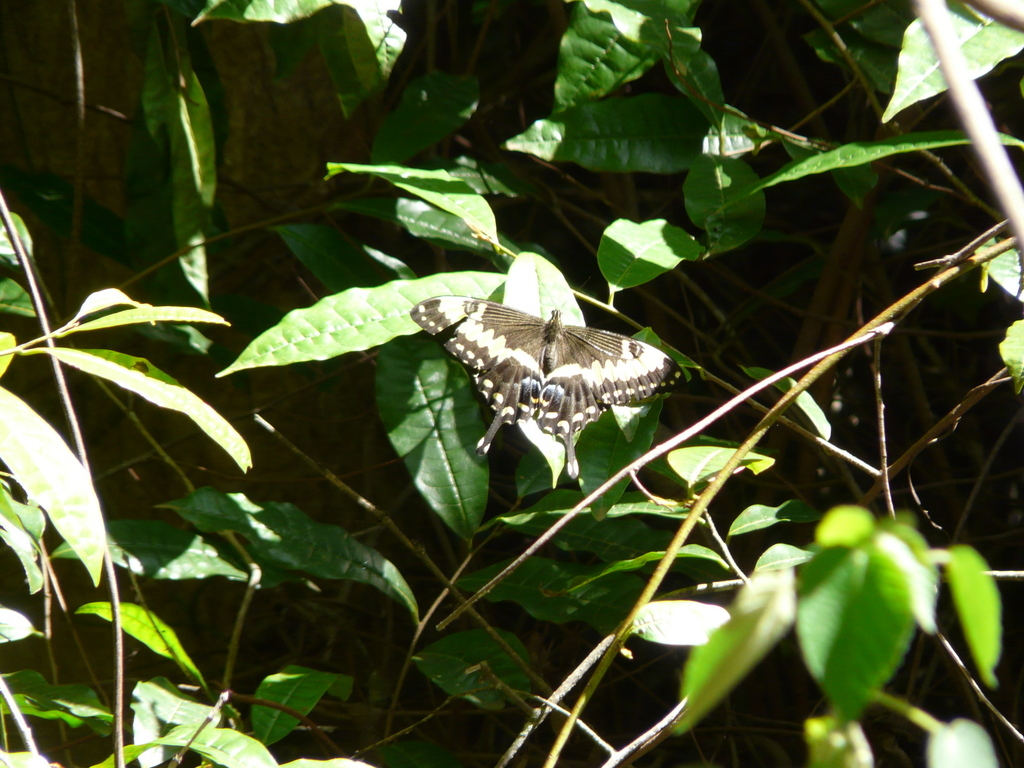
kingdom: Animalia
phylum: Arthropoda
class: Insecta
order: Lepidoptera
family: Papilionidae
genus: Papilio
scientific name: Papilio ophidicephalus
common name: Emperor swallowtail
